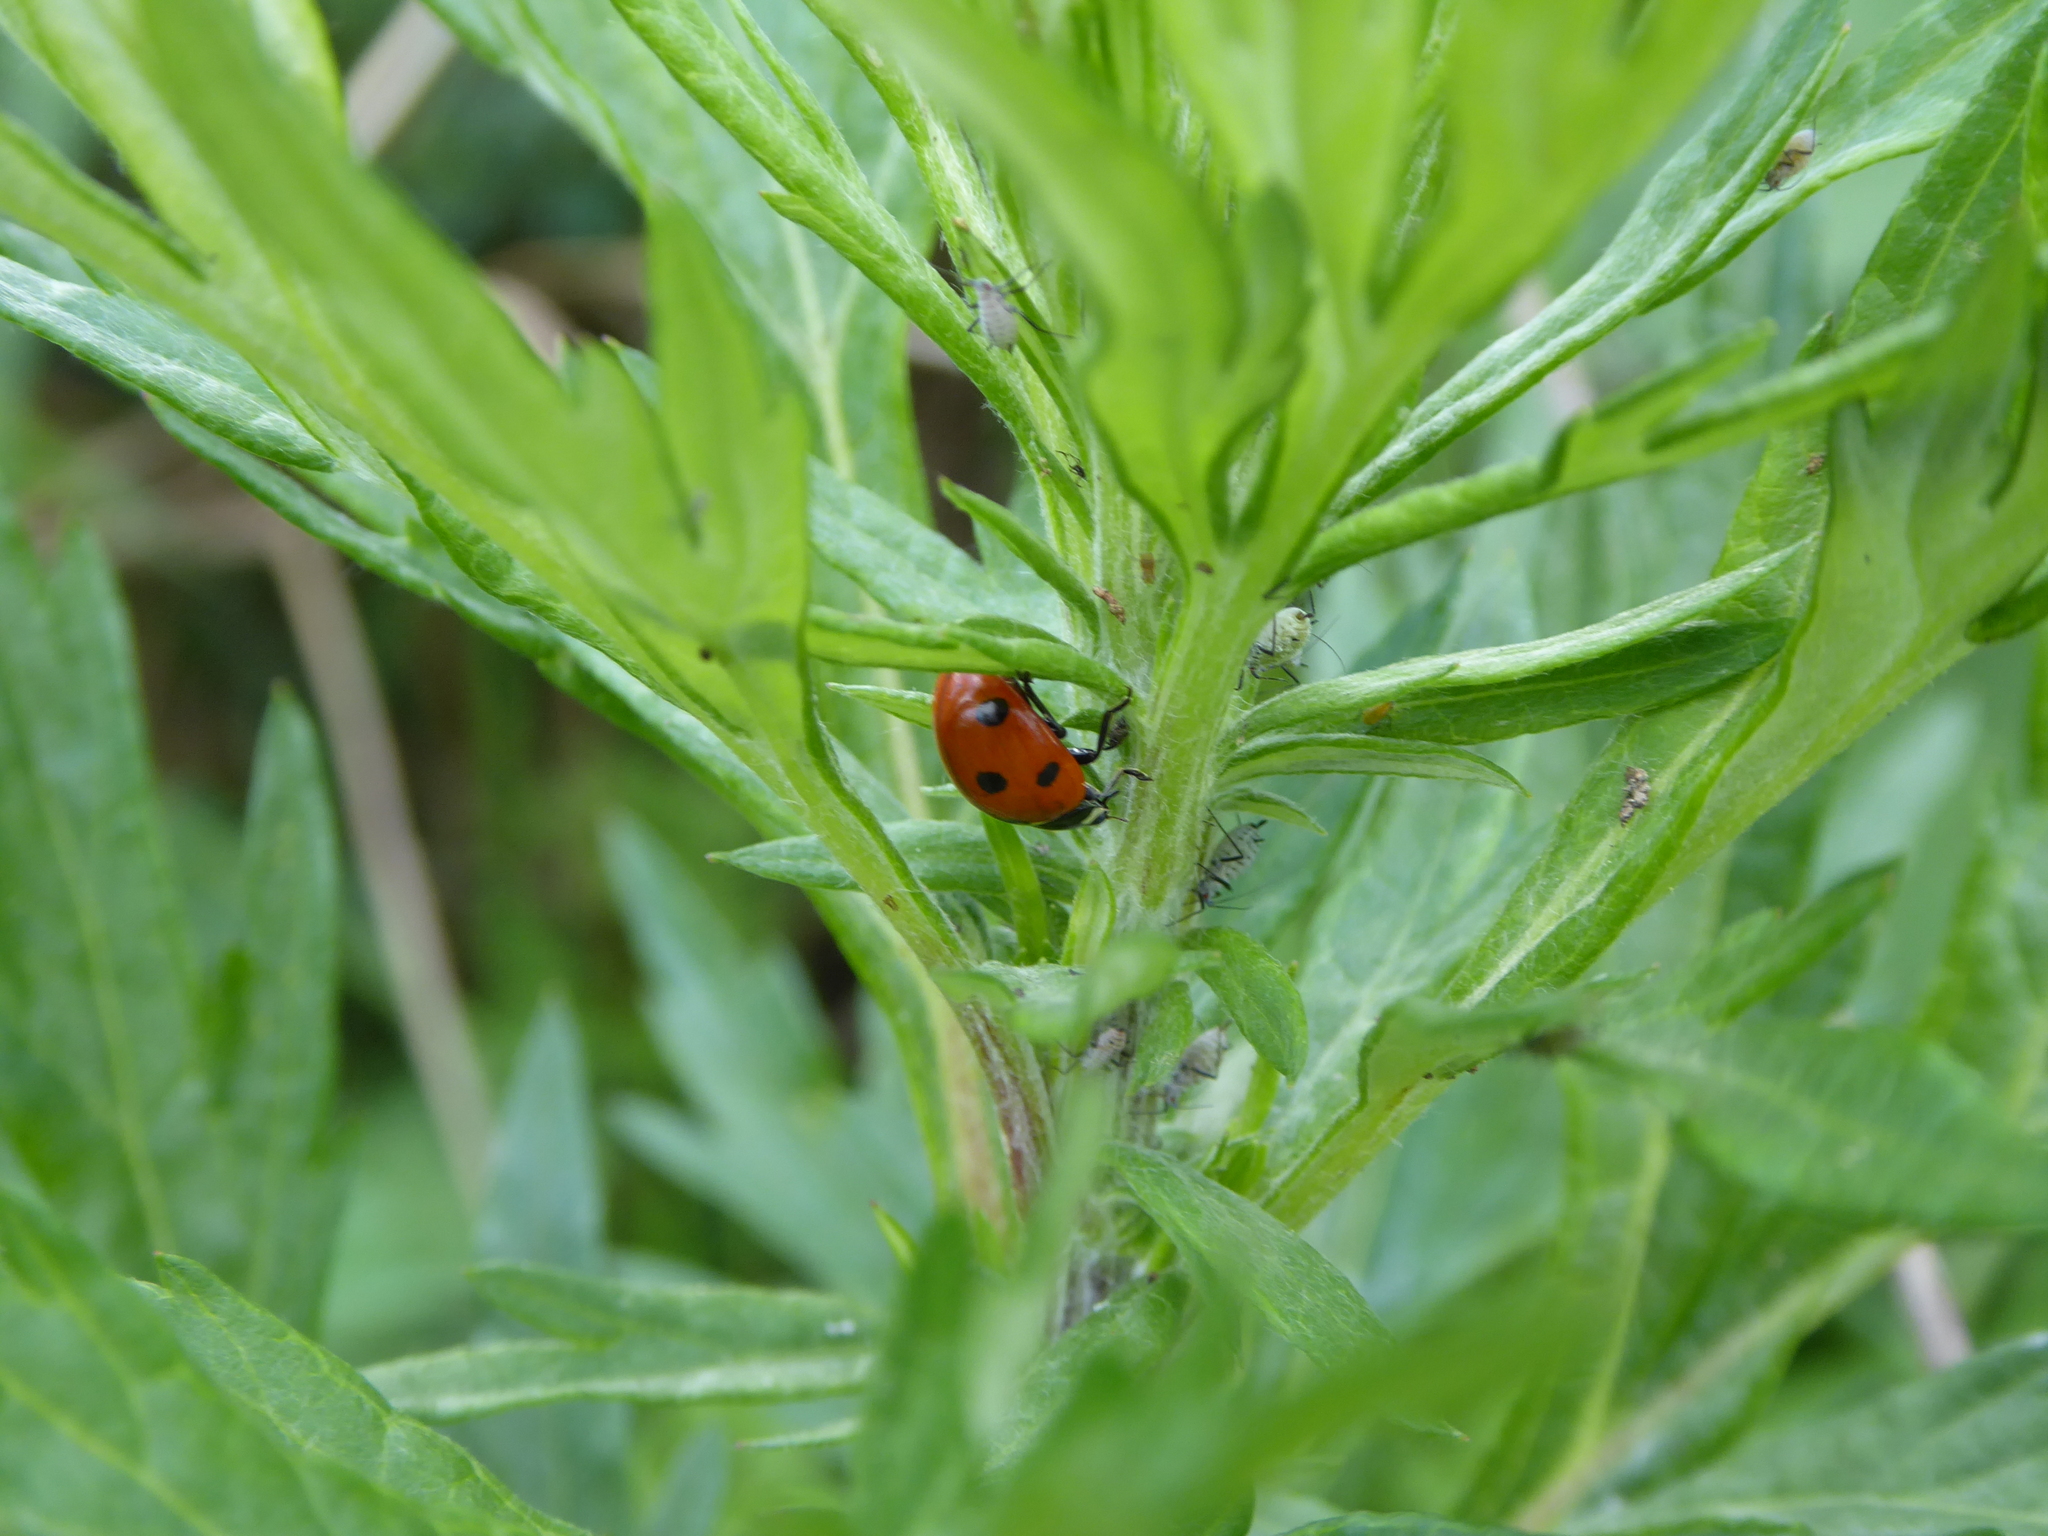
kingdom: Animalia
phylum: Arthropoda
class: Insecta
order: Coleoptera
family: Coccinellidae
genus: Coccinella
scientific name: Coccinella septempunctata
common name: Sevenspotted lady beetle
